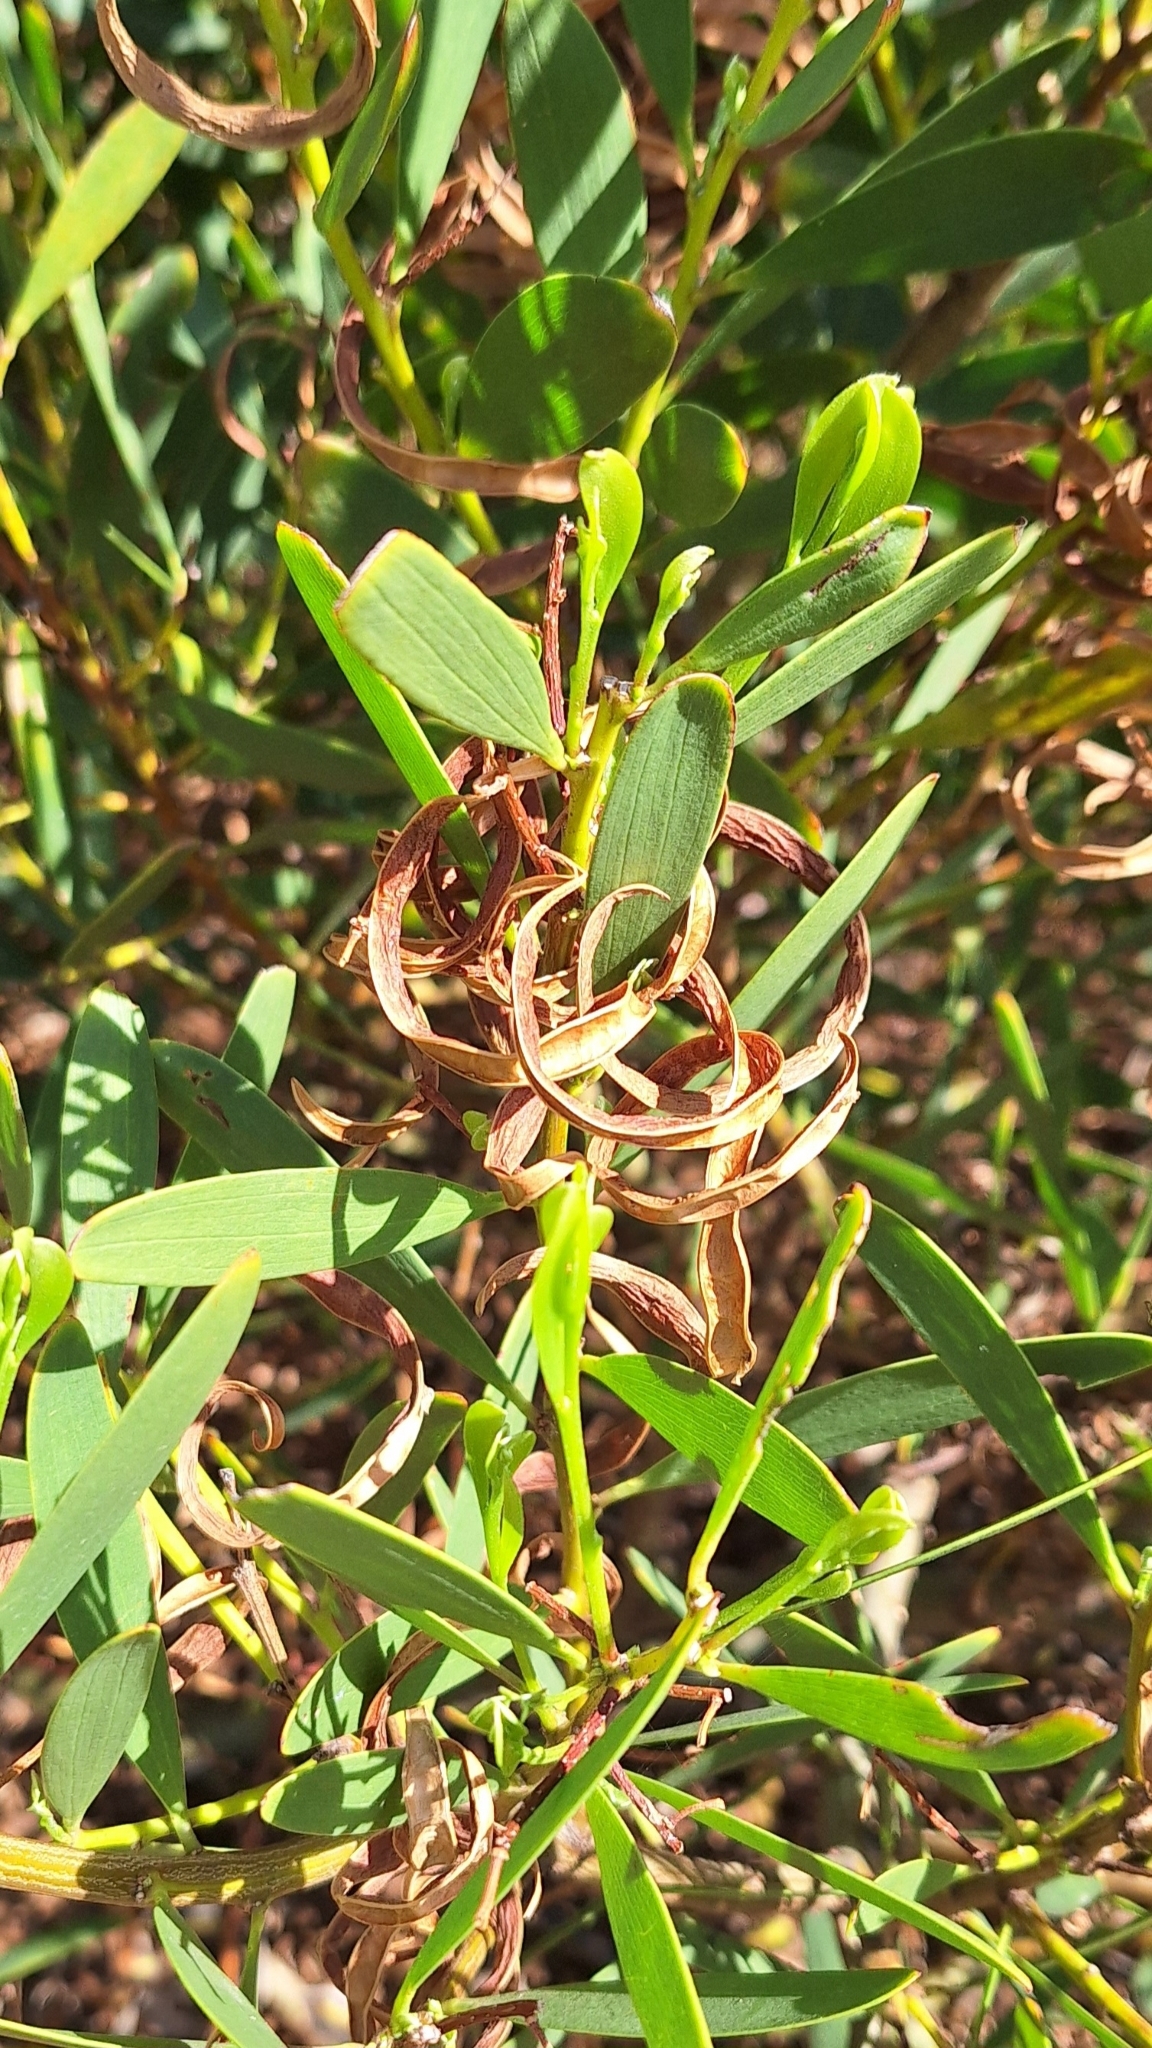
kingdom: Plantae
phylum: Tracheophyta
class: Magnoliopsida
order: Fabales
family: Fabaceae
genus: Acacia
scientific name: Acacia longifolia
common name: Sydney golden wattle
